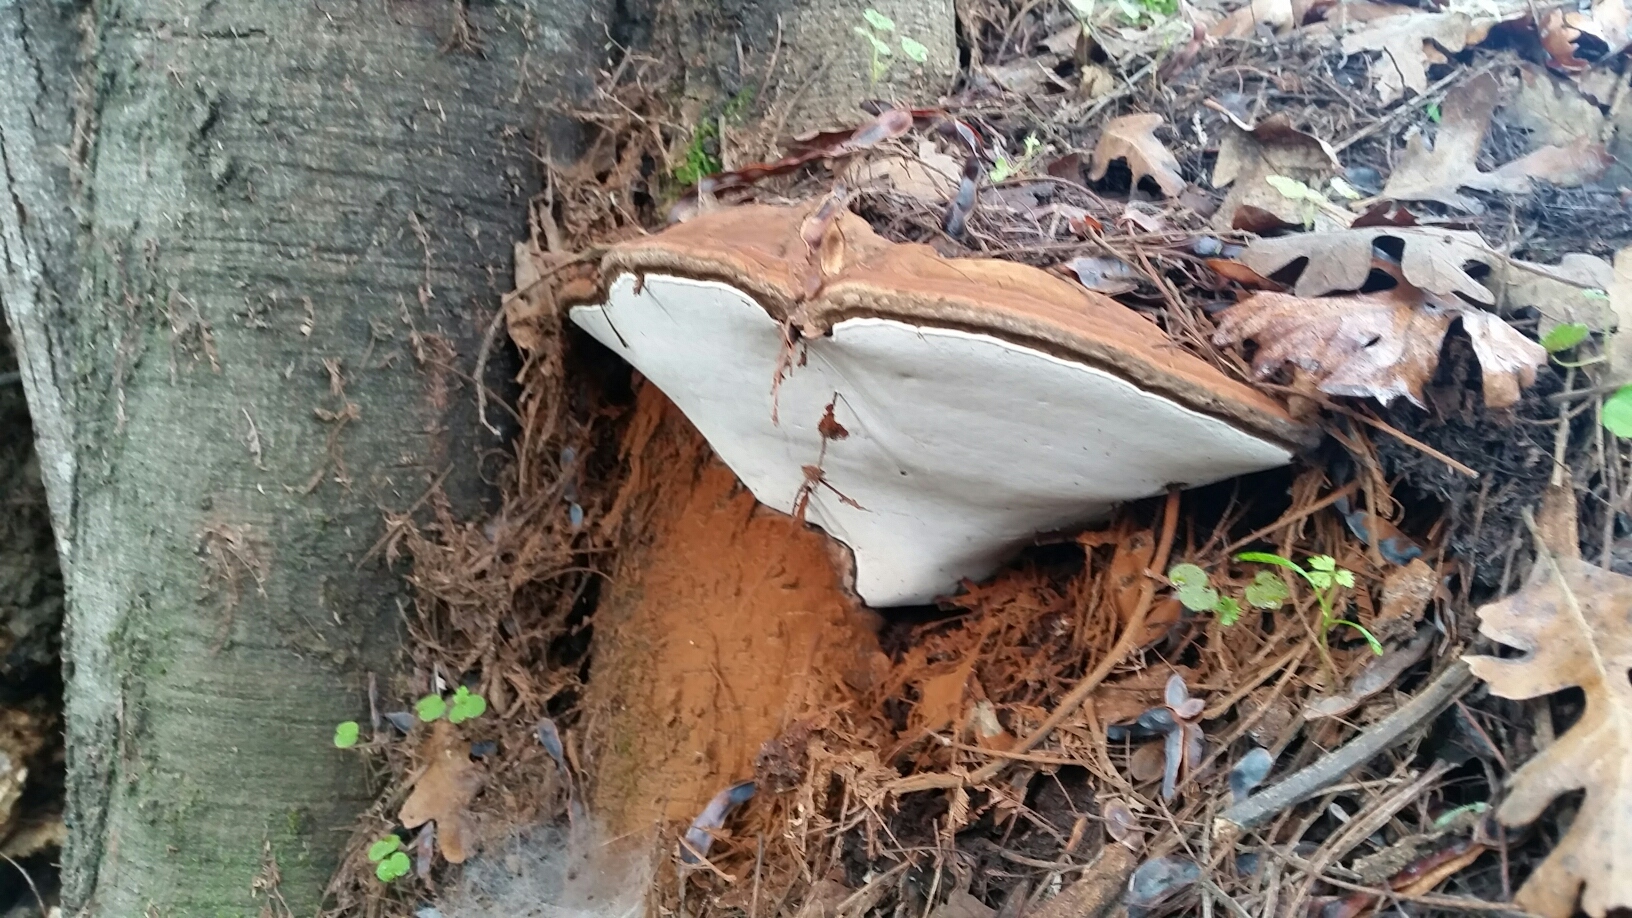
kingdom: Fungi
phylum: Basidiomycota
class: Agaricomycetes
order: Polyporales
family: Polyporaceae
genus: Ganoderma
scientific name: Ganoderma brownii
